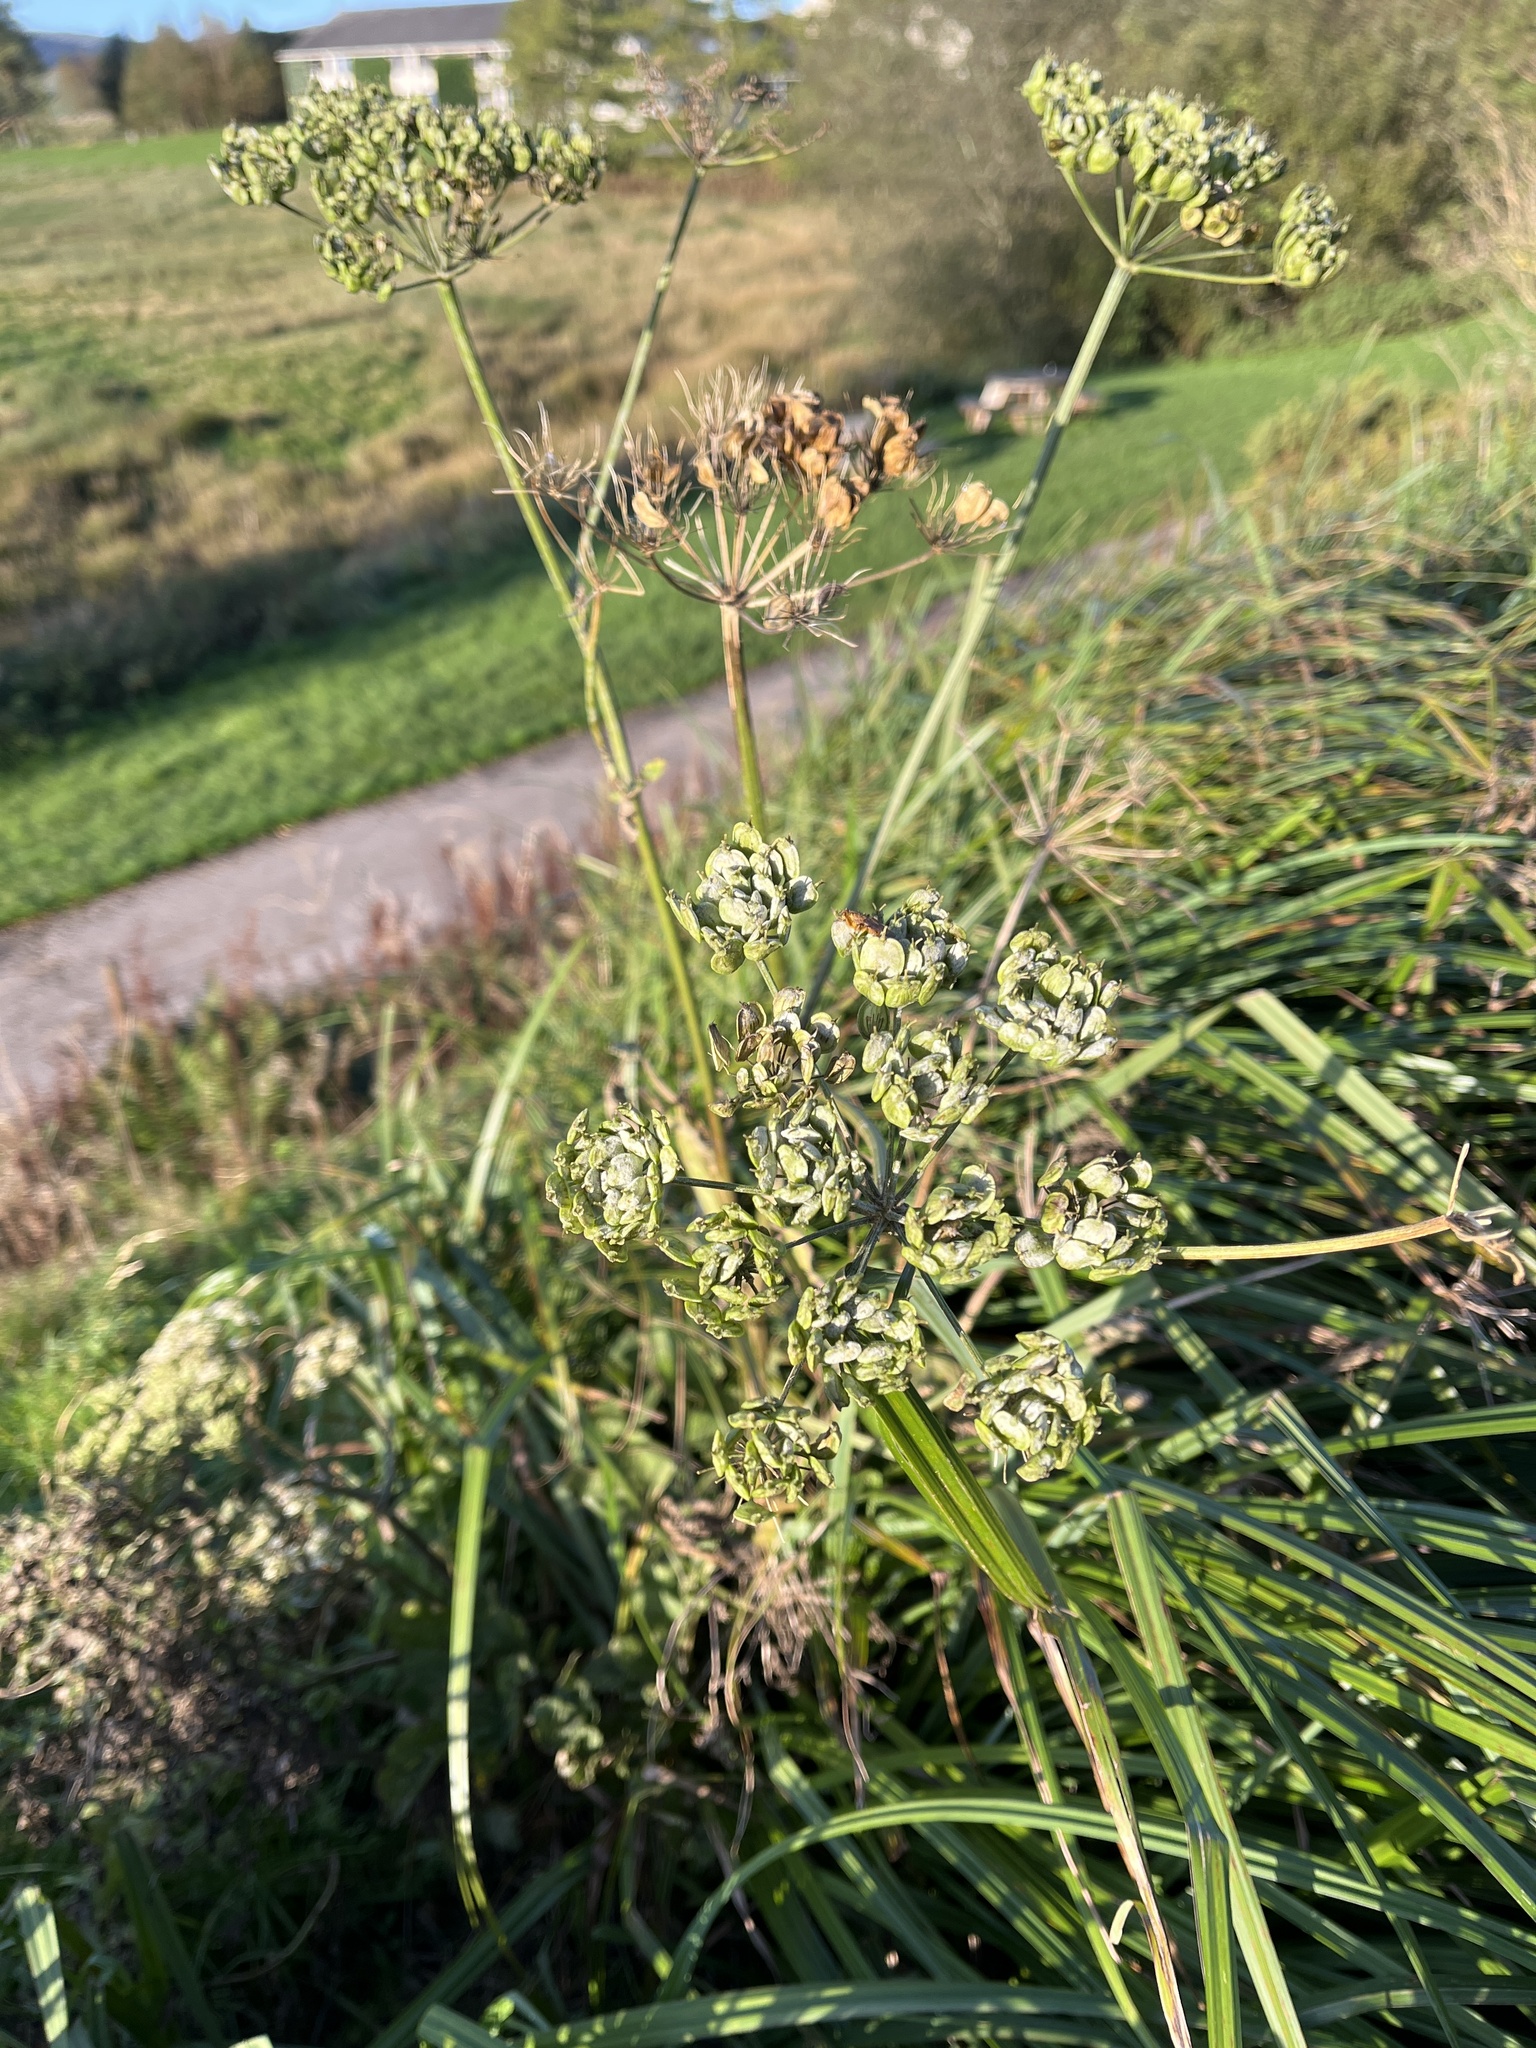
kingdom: Plantae
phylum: Tracheophyta
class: Magnoliopsida
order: Apiales
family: Apiaceae
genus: Heracleum
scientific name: Heracleum sphondylium
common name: Hogweed
